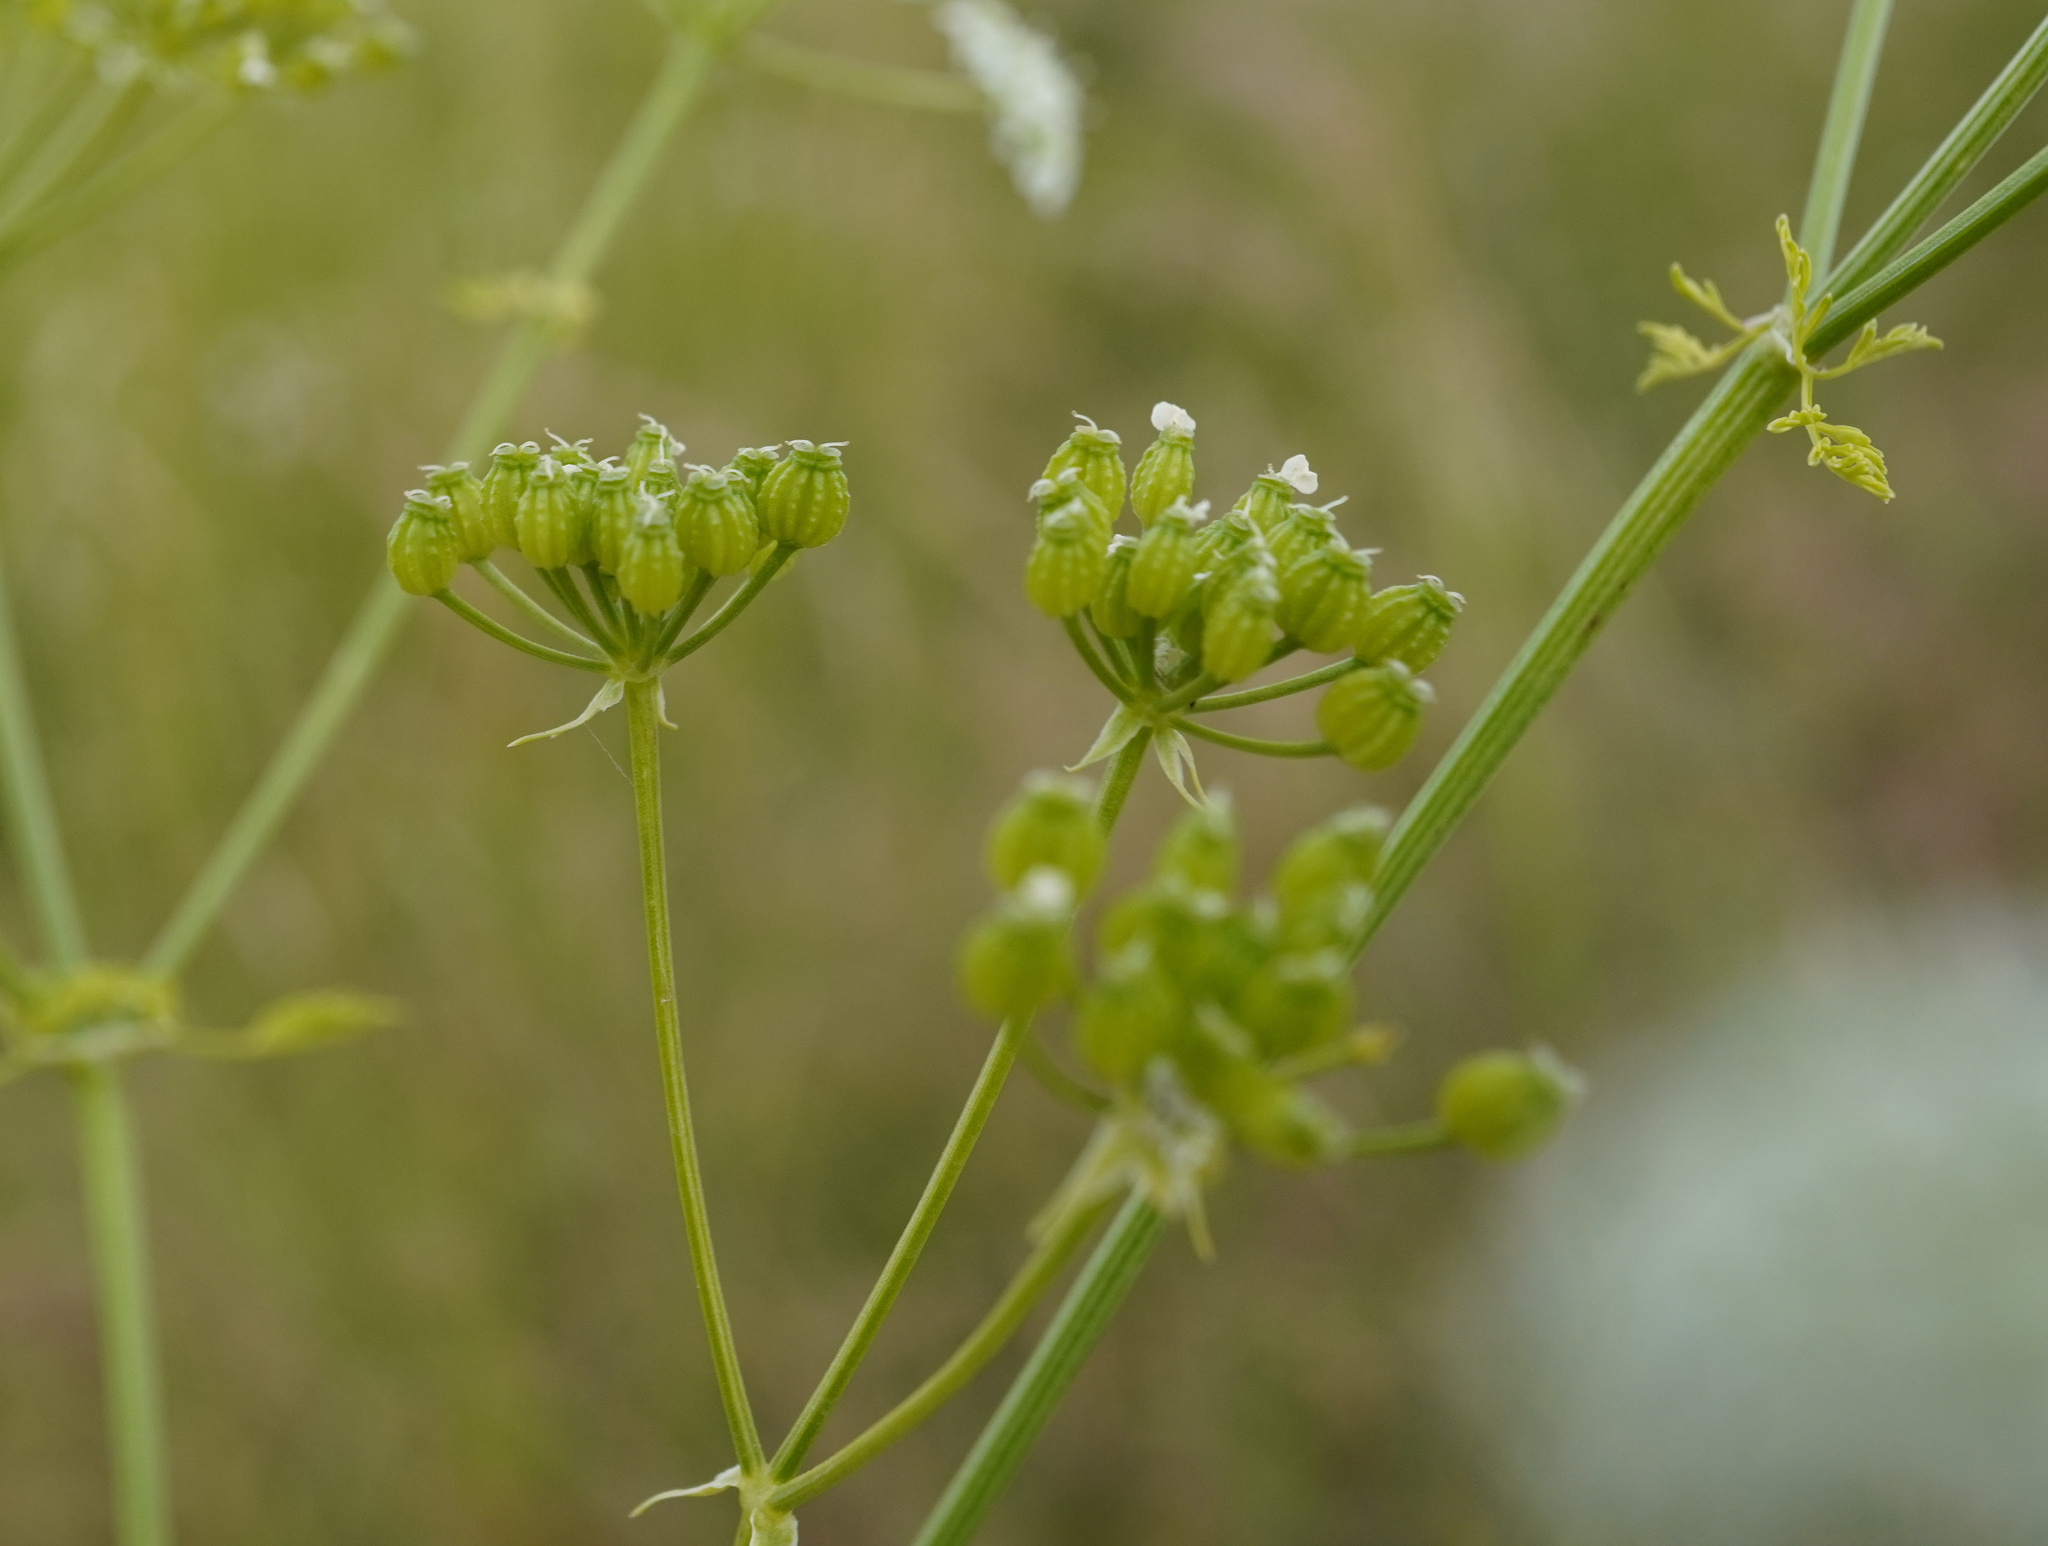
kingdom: Plantae
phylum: Tracheophyta
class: Magnoliopsida
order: Apiales
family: Apiaceae
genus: Conium
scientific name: Conium maculatum
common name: Hemlock
